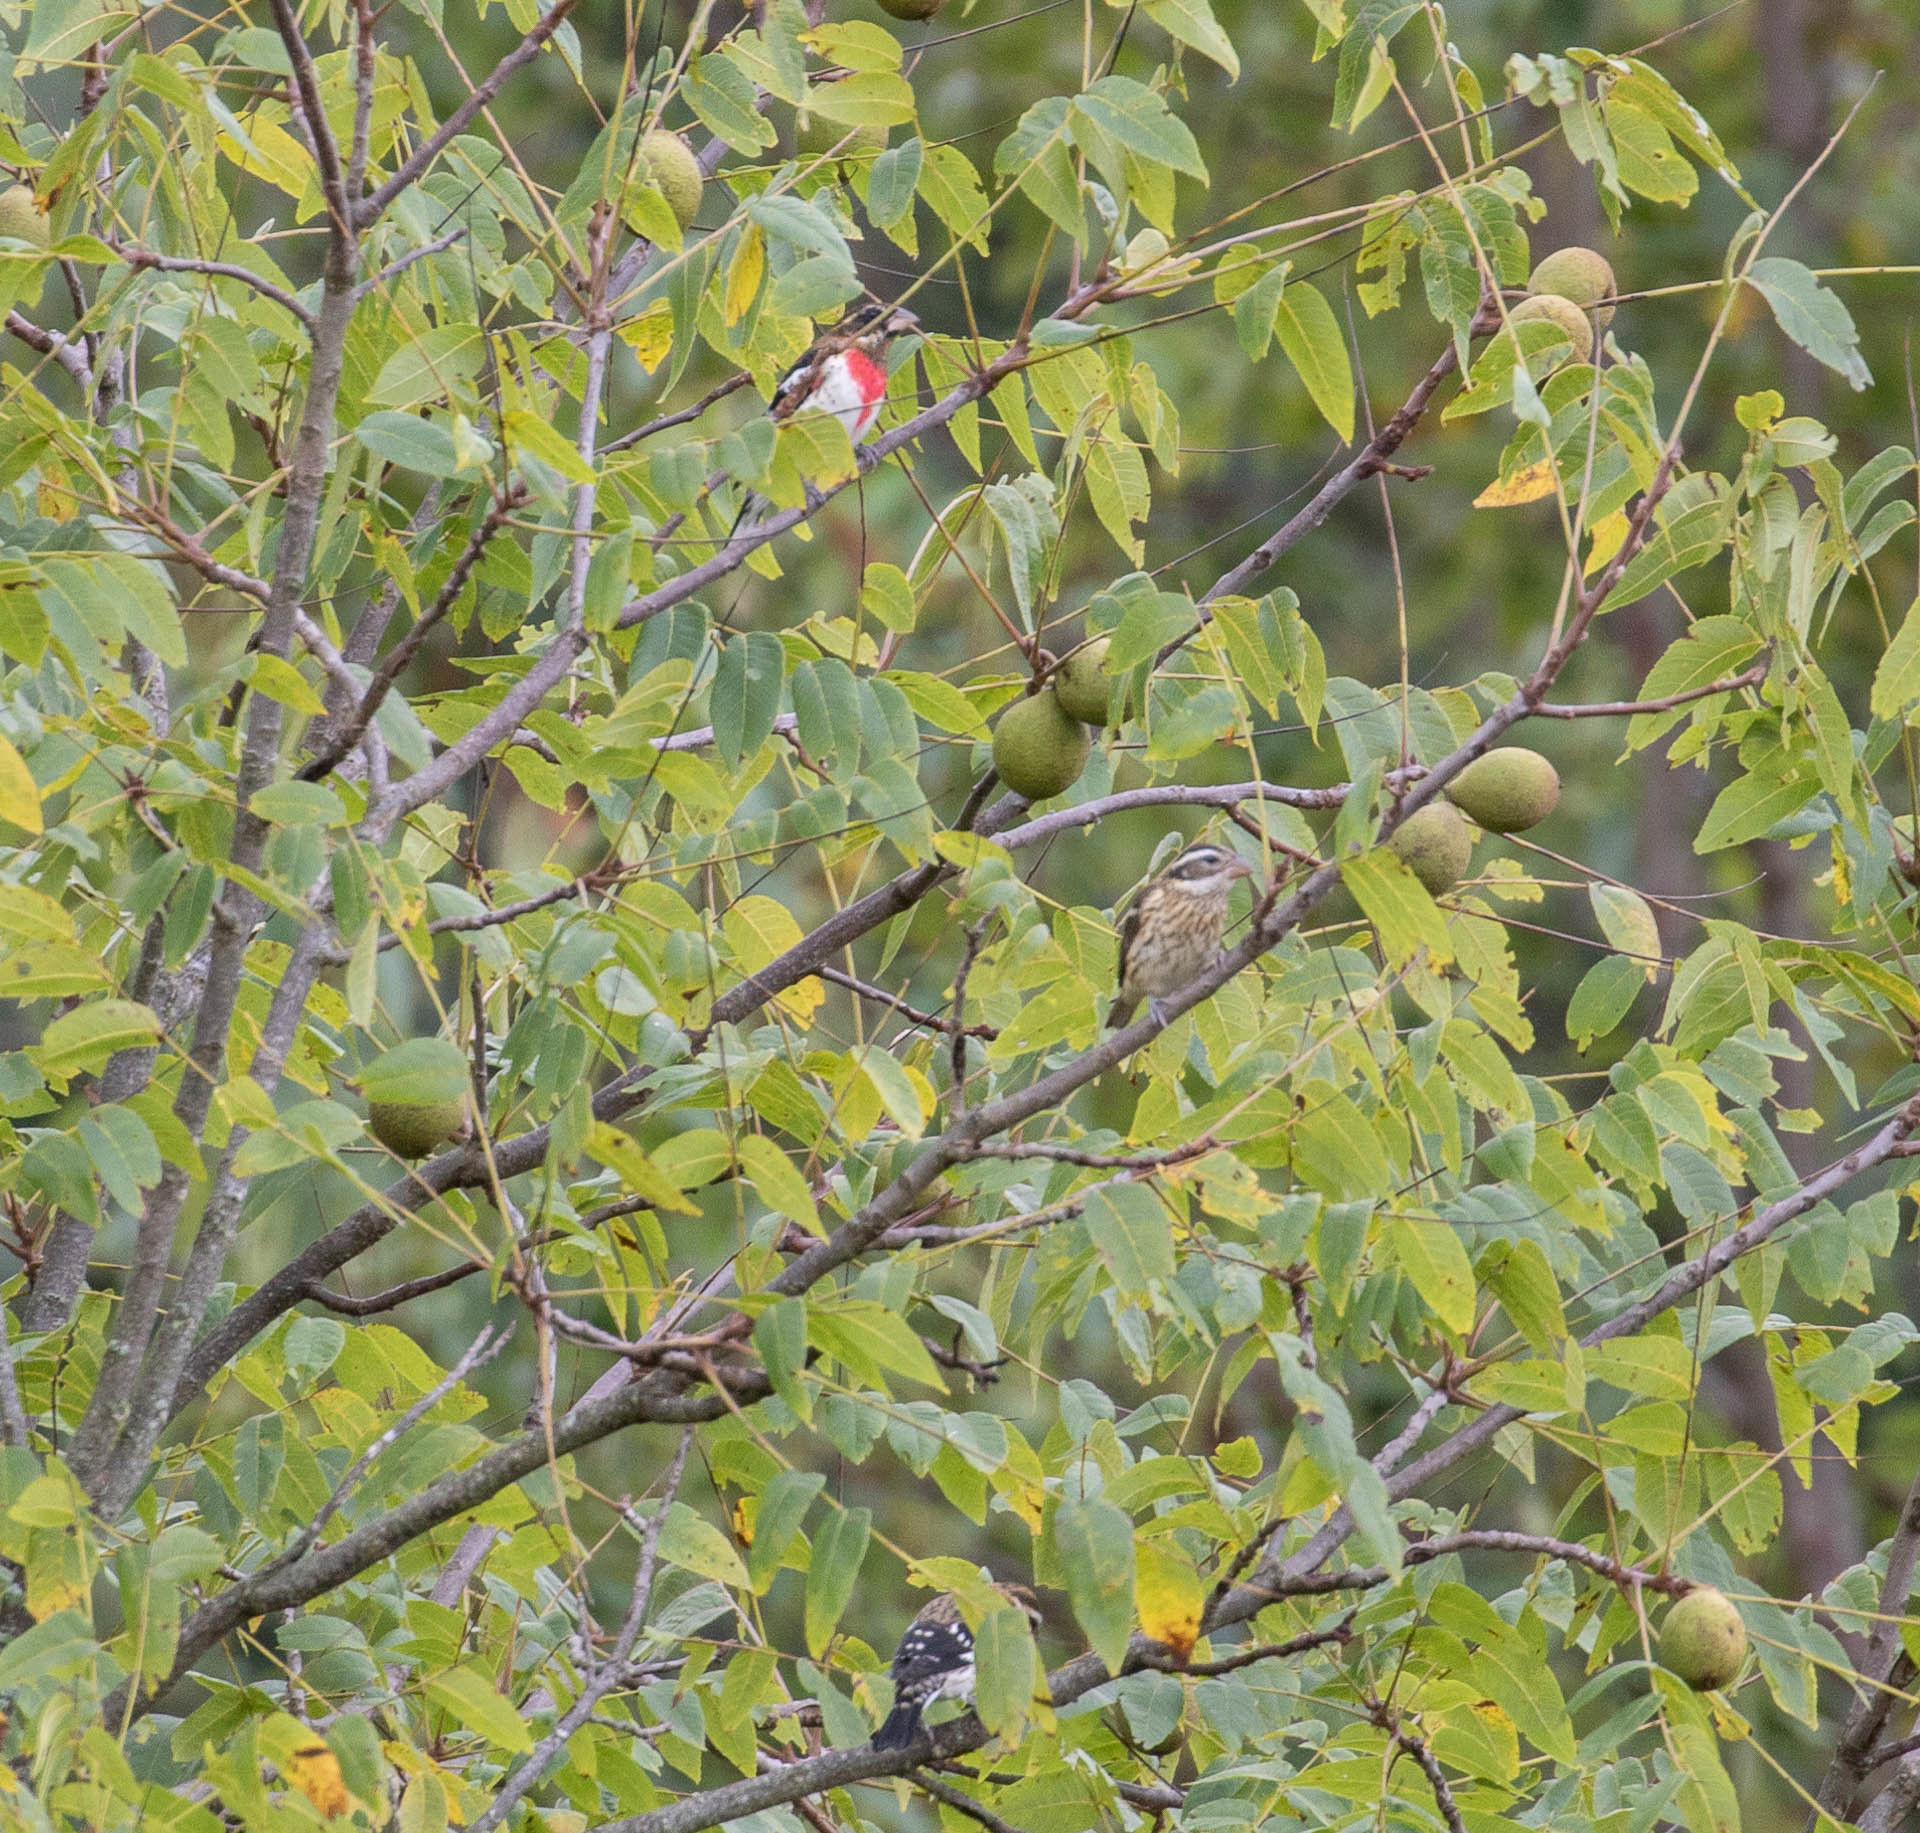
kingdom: Animalia
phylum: Chordata
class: Aves
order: Passeriformes
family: Cardinalidae
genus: Pheucticus
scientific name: Pheucticus ludovicianus
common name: Rose-breasted grosbeak
